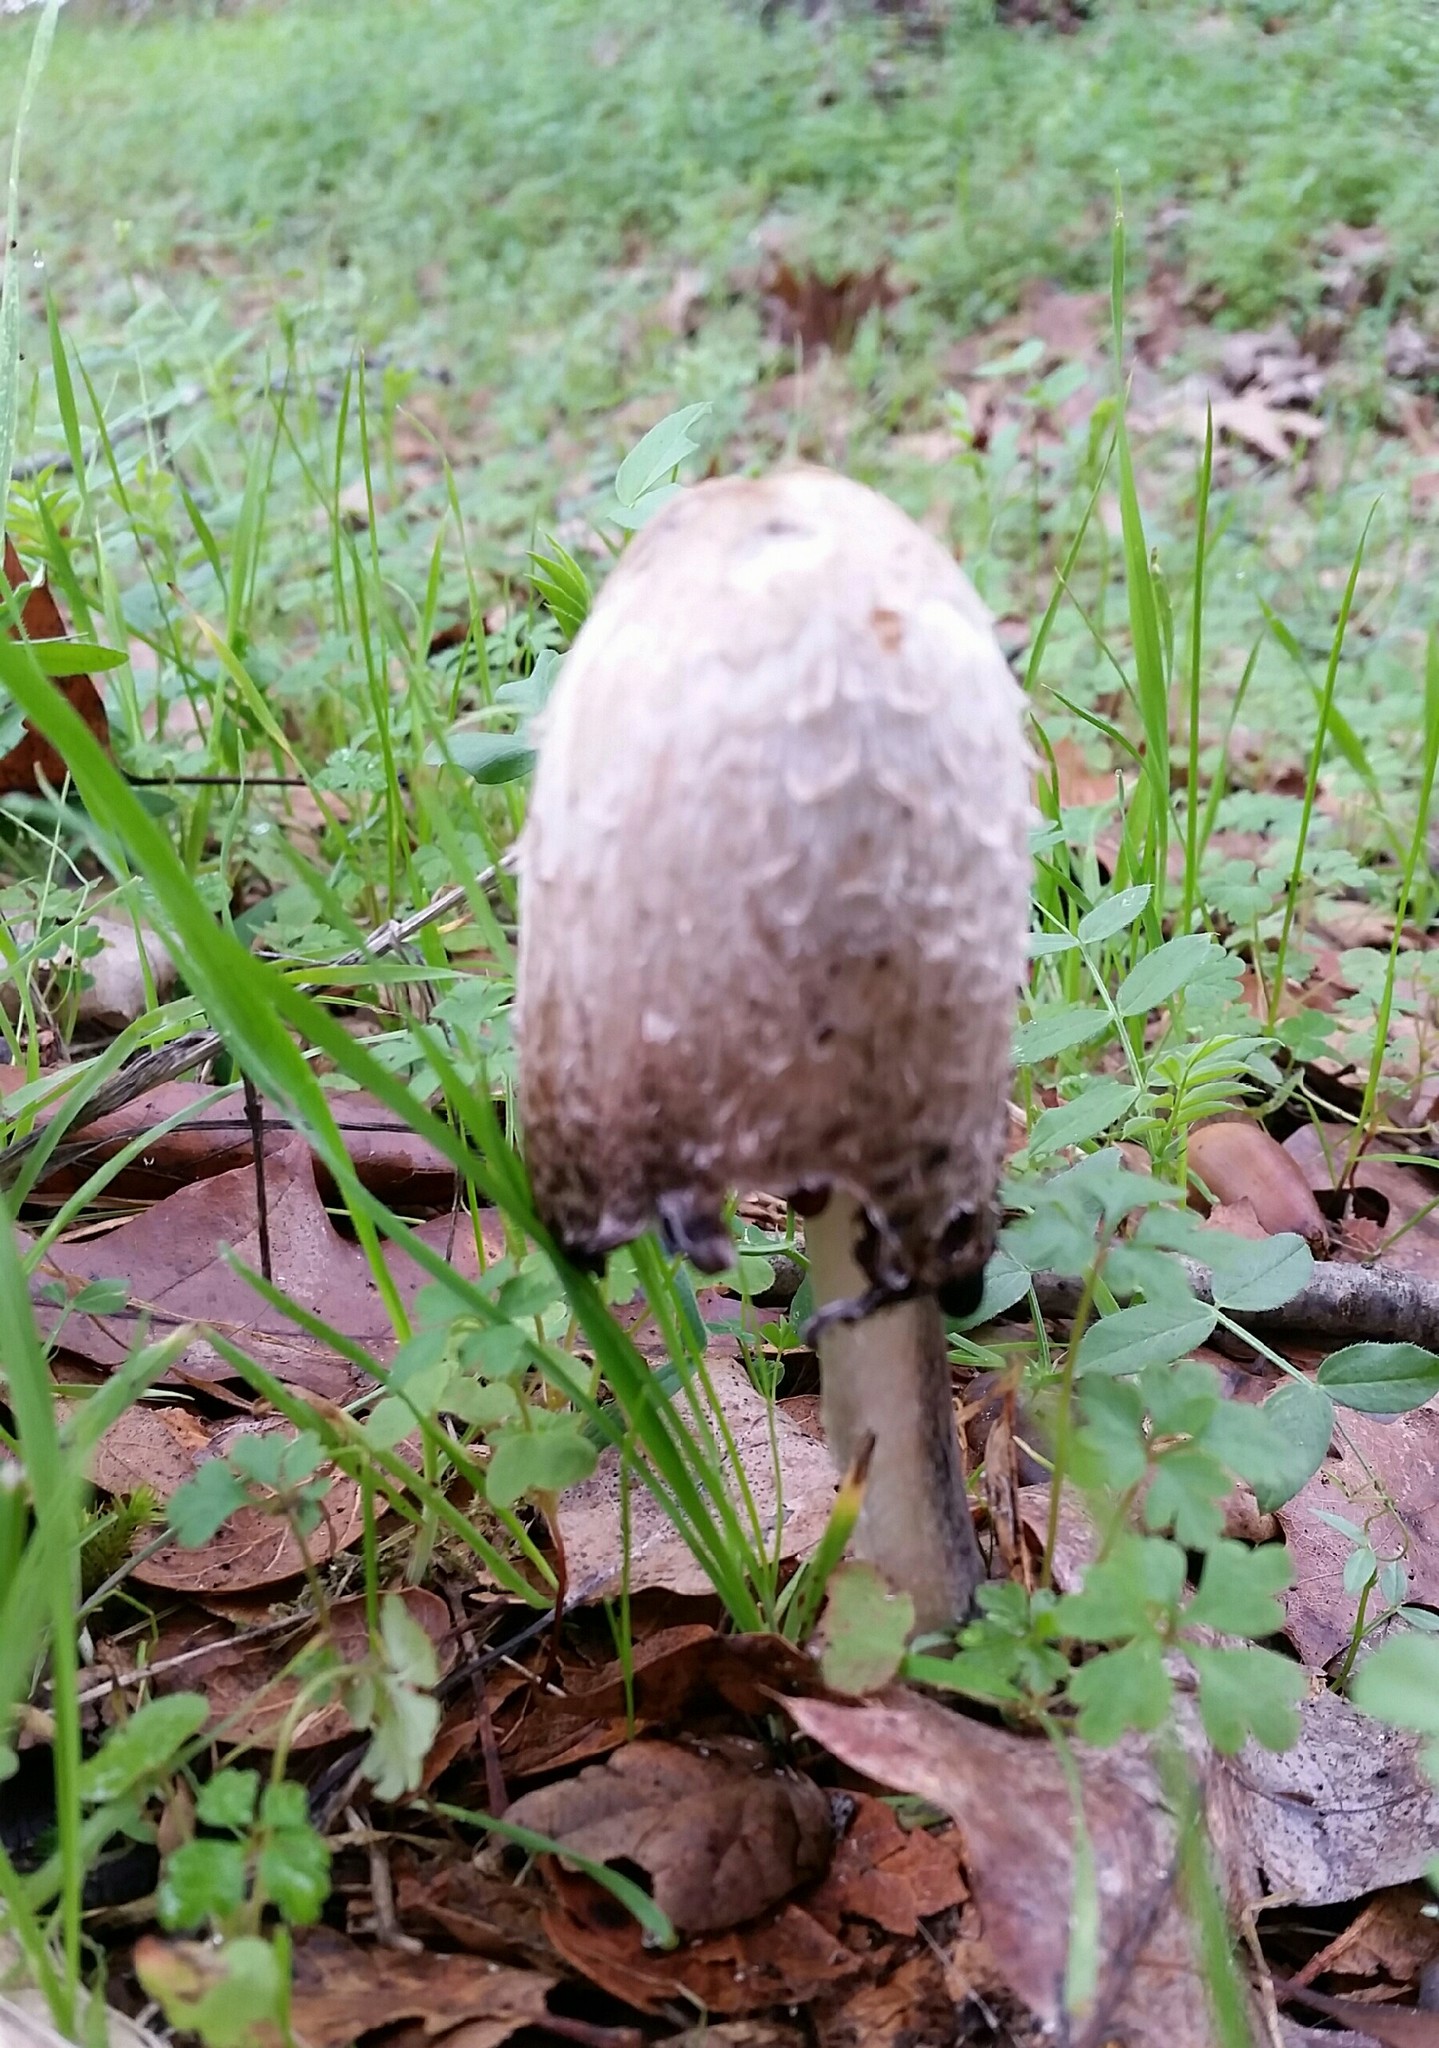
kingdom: Fungi
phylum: Basidiomycota
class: Agaricomycetes
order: Agaricales
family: Agaricaceae
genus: Coprinus
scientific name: Coprinus comatus
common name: Lawyer's wig
